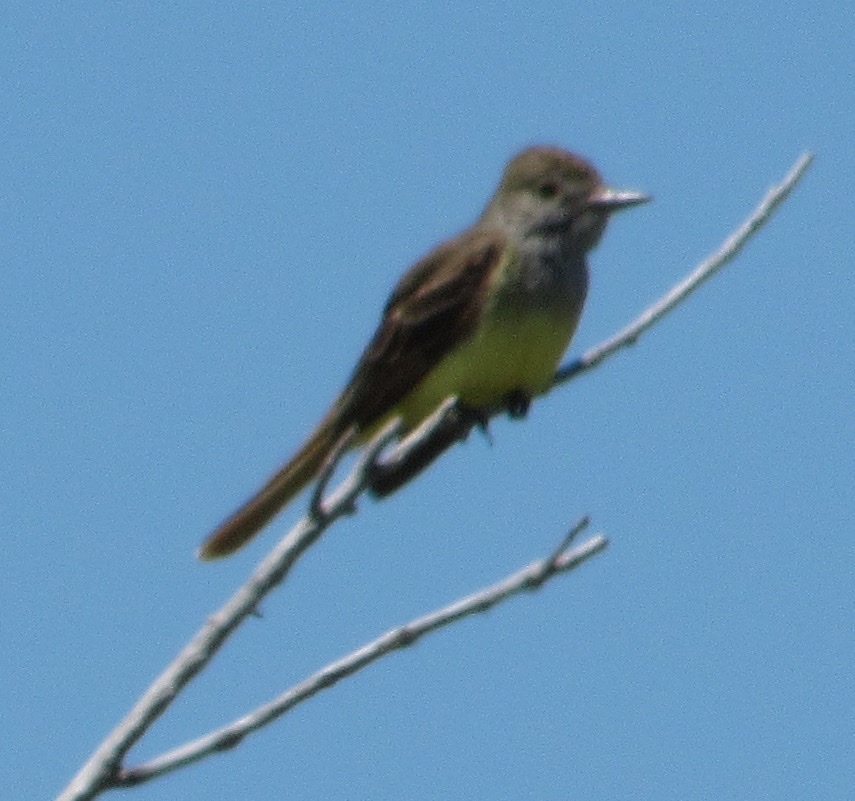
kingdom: Animalia
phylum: Chordata
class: Aves
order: Passeriformes
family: Tyrannidae
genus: Myiarchus
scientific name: Myiarchus crinitus
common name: Great crested flycatcher
